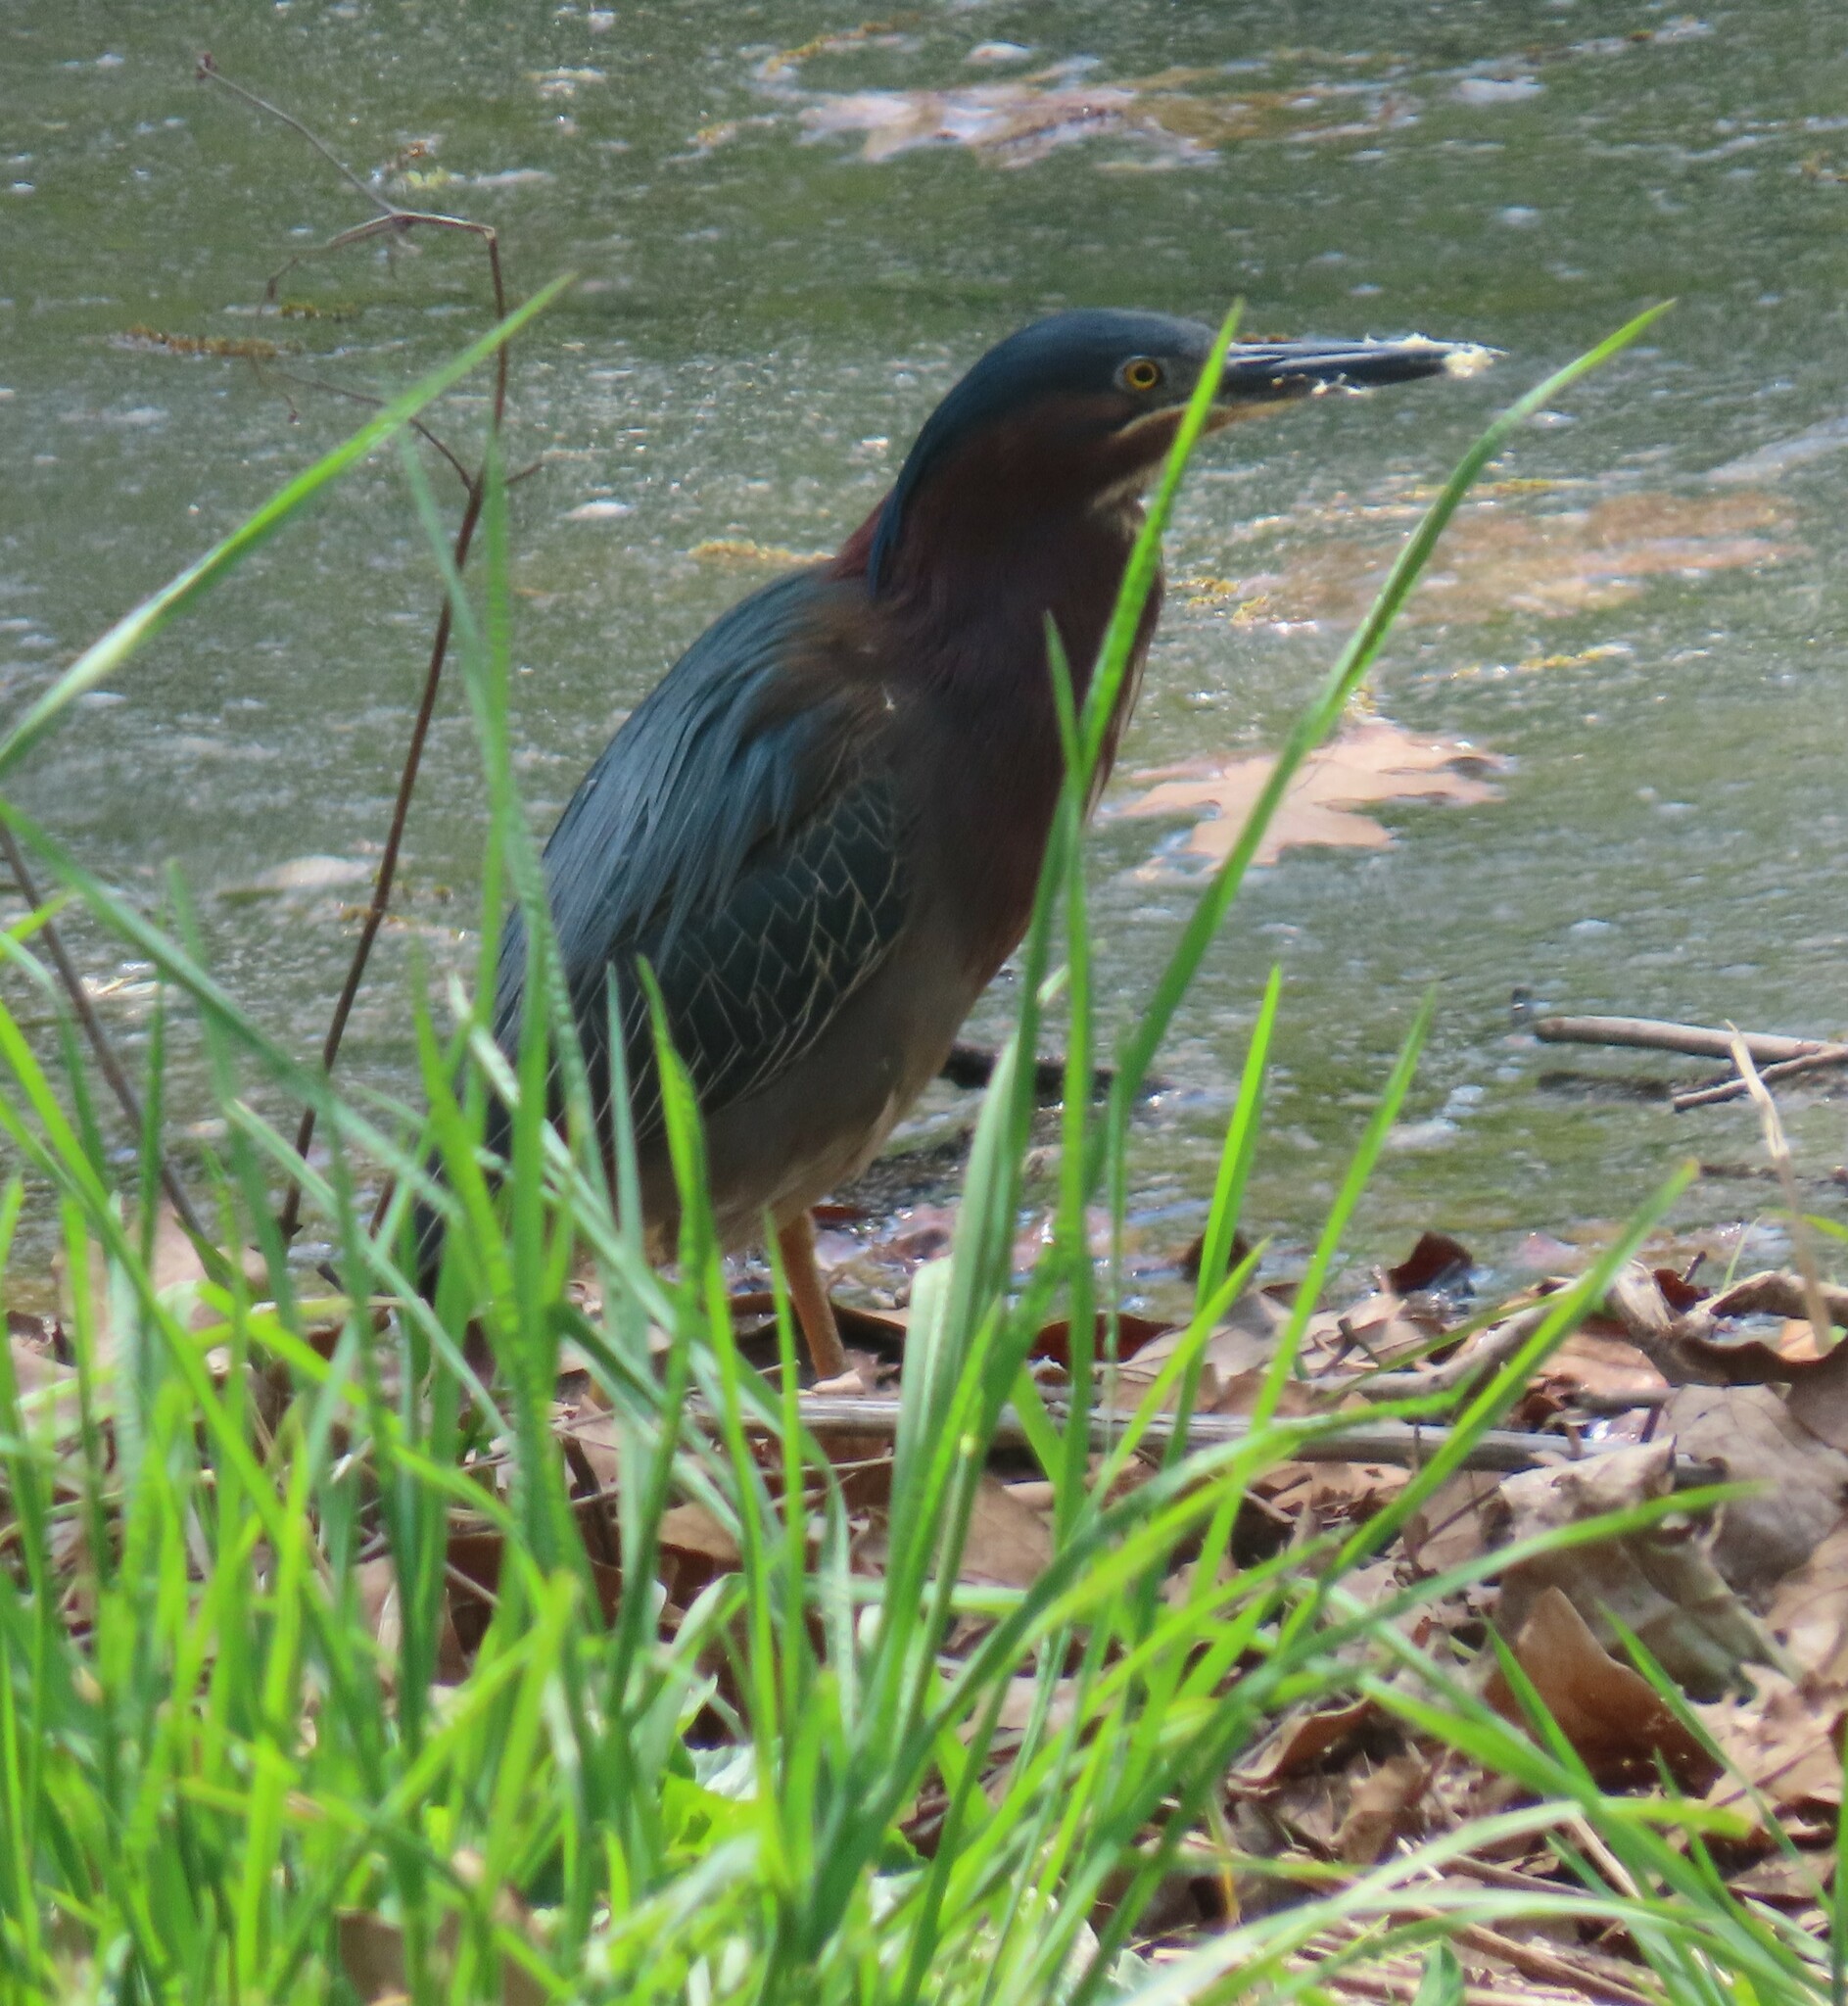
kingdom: Animalia
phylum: Chordata
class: Aves
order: Pelecaniformes
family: Ardeidae
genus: Butorides
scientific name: Butorides virescens
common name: Green heron
